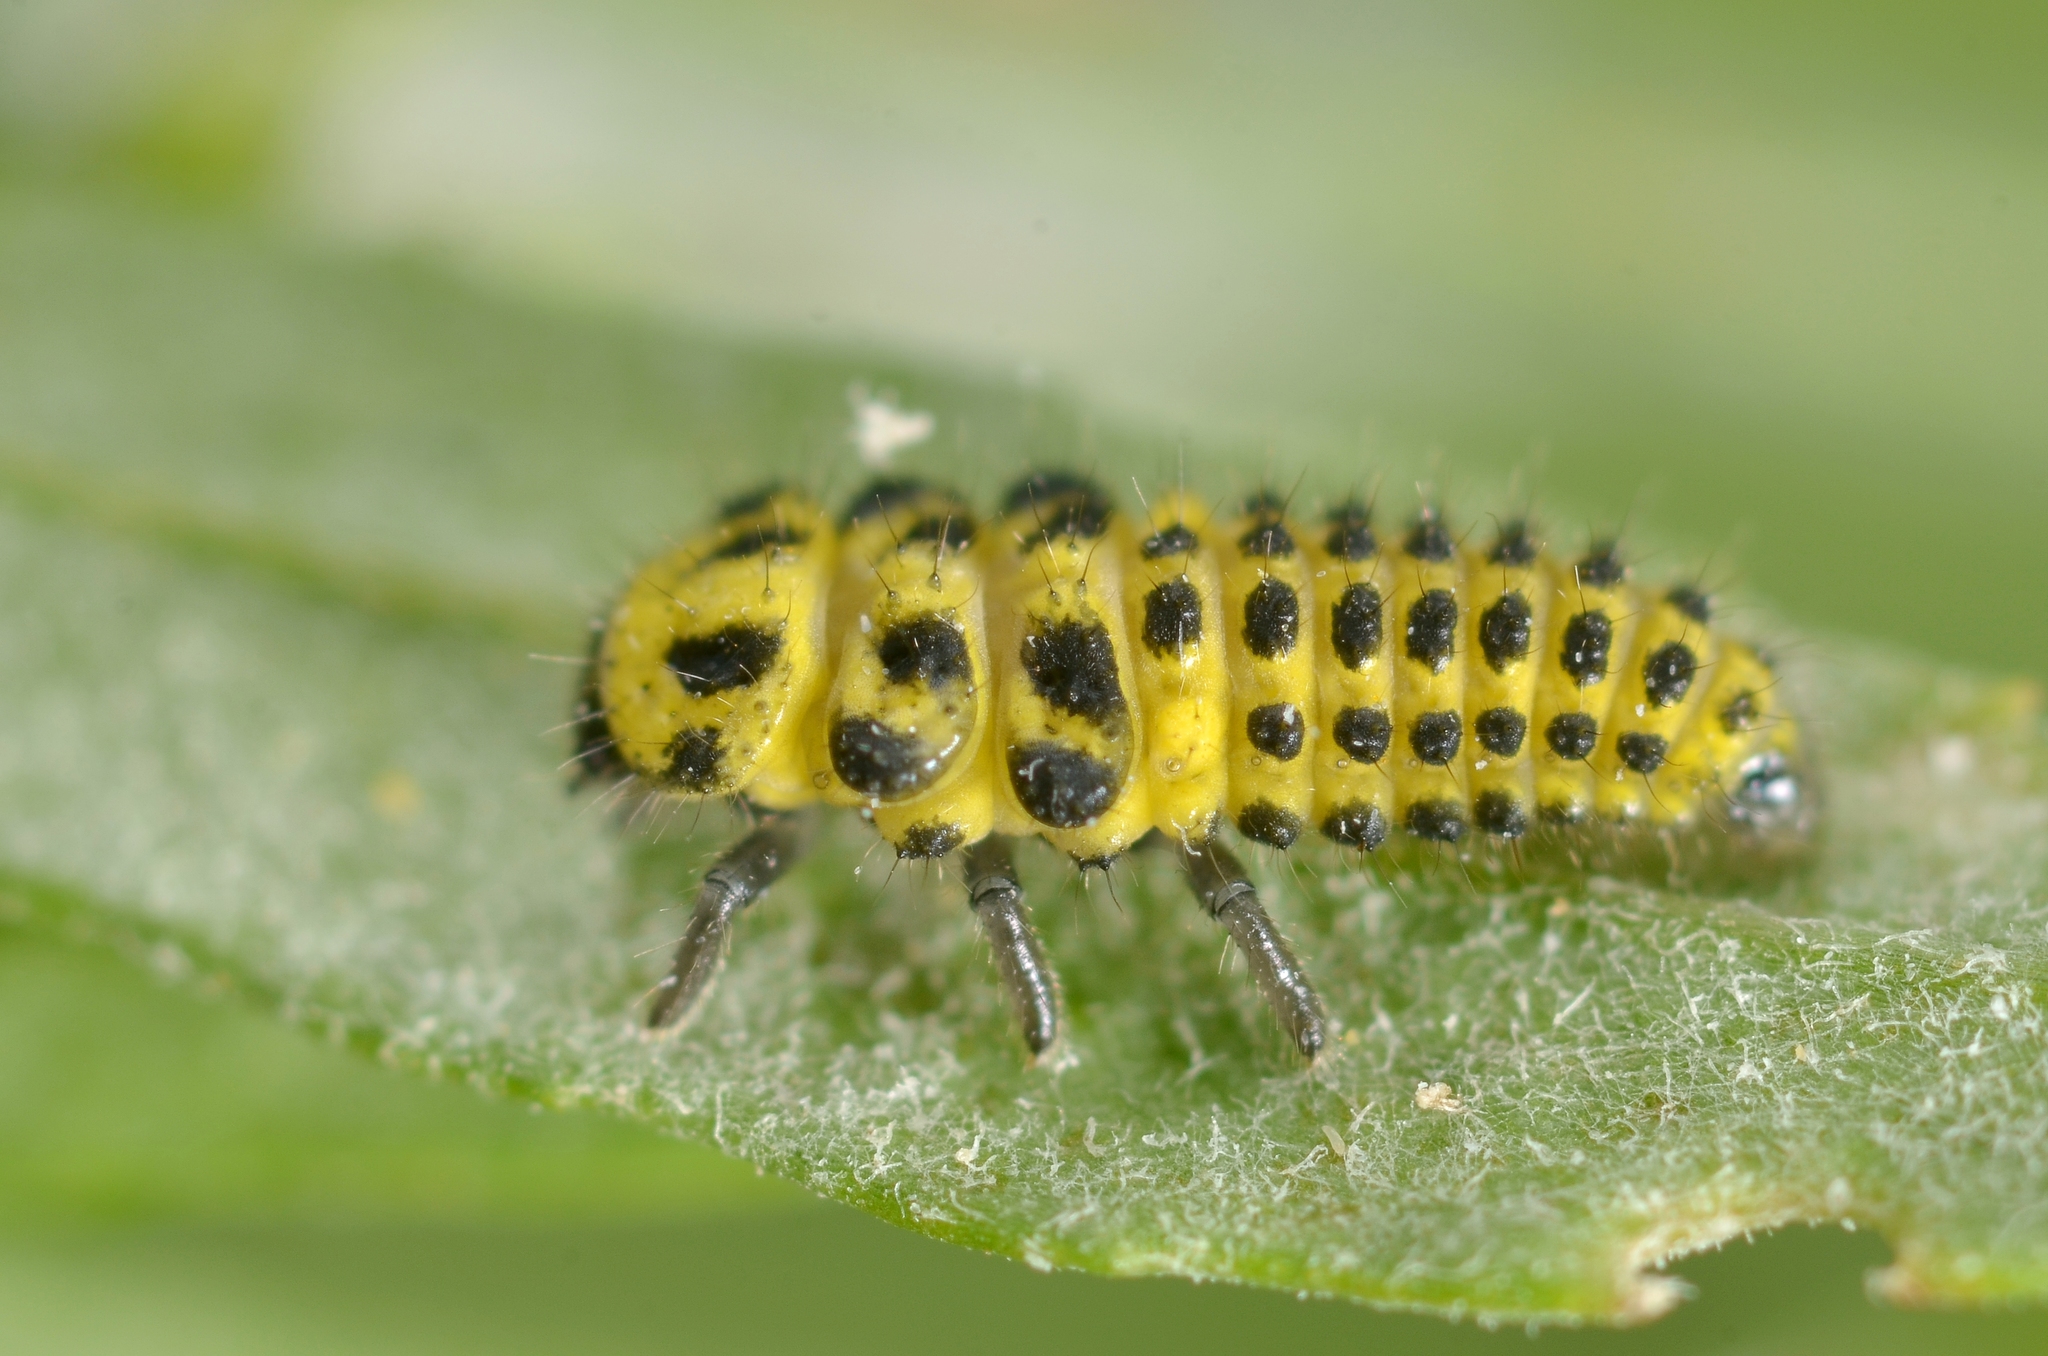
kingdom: Animalia
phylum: Arthropoda
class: Insecta
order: Coleoptera
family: Coccinellidae
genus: Psyllobora
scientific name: Psyllobora vigintiduopunctata
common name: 22-spot ladybird
